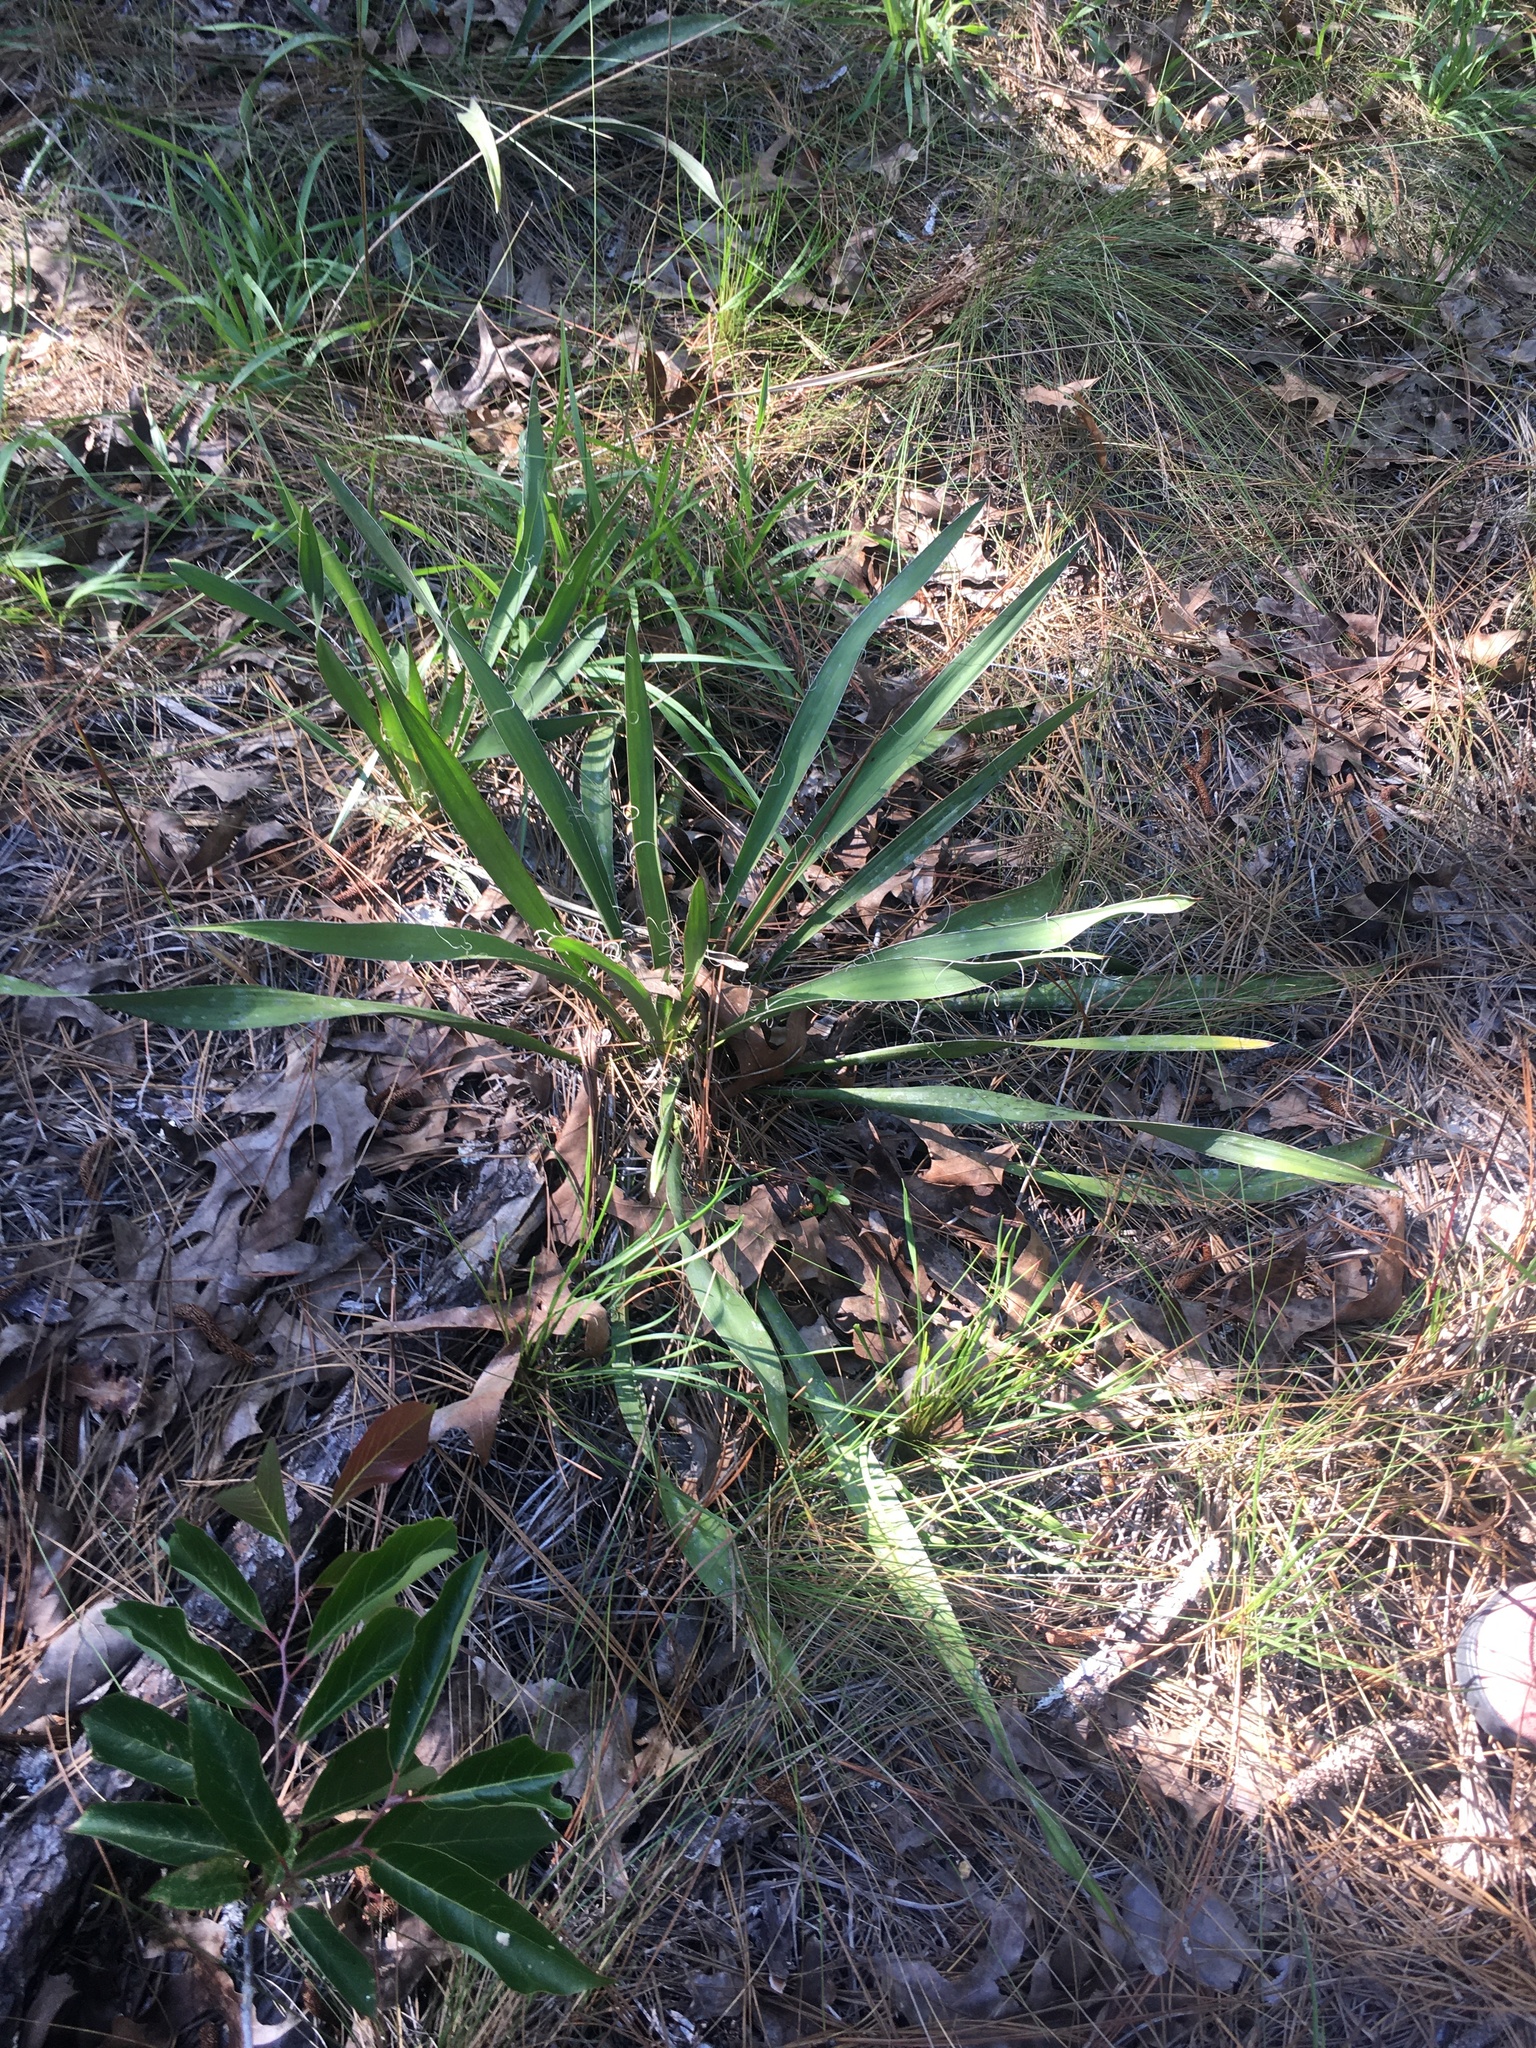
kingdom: Plantae
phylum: Tracheophyta
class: Liliopsida
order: Asparagales
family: Asparagaceae
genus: Yucca
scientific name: Yucca filamentosa
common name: Adam's-needle
